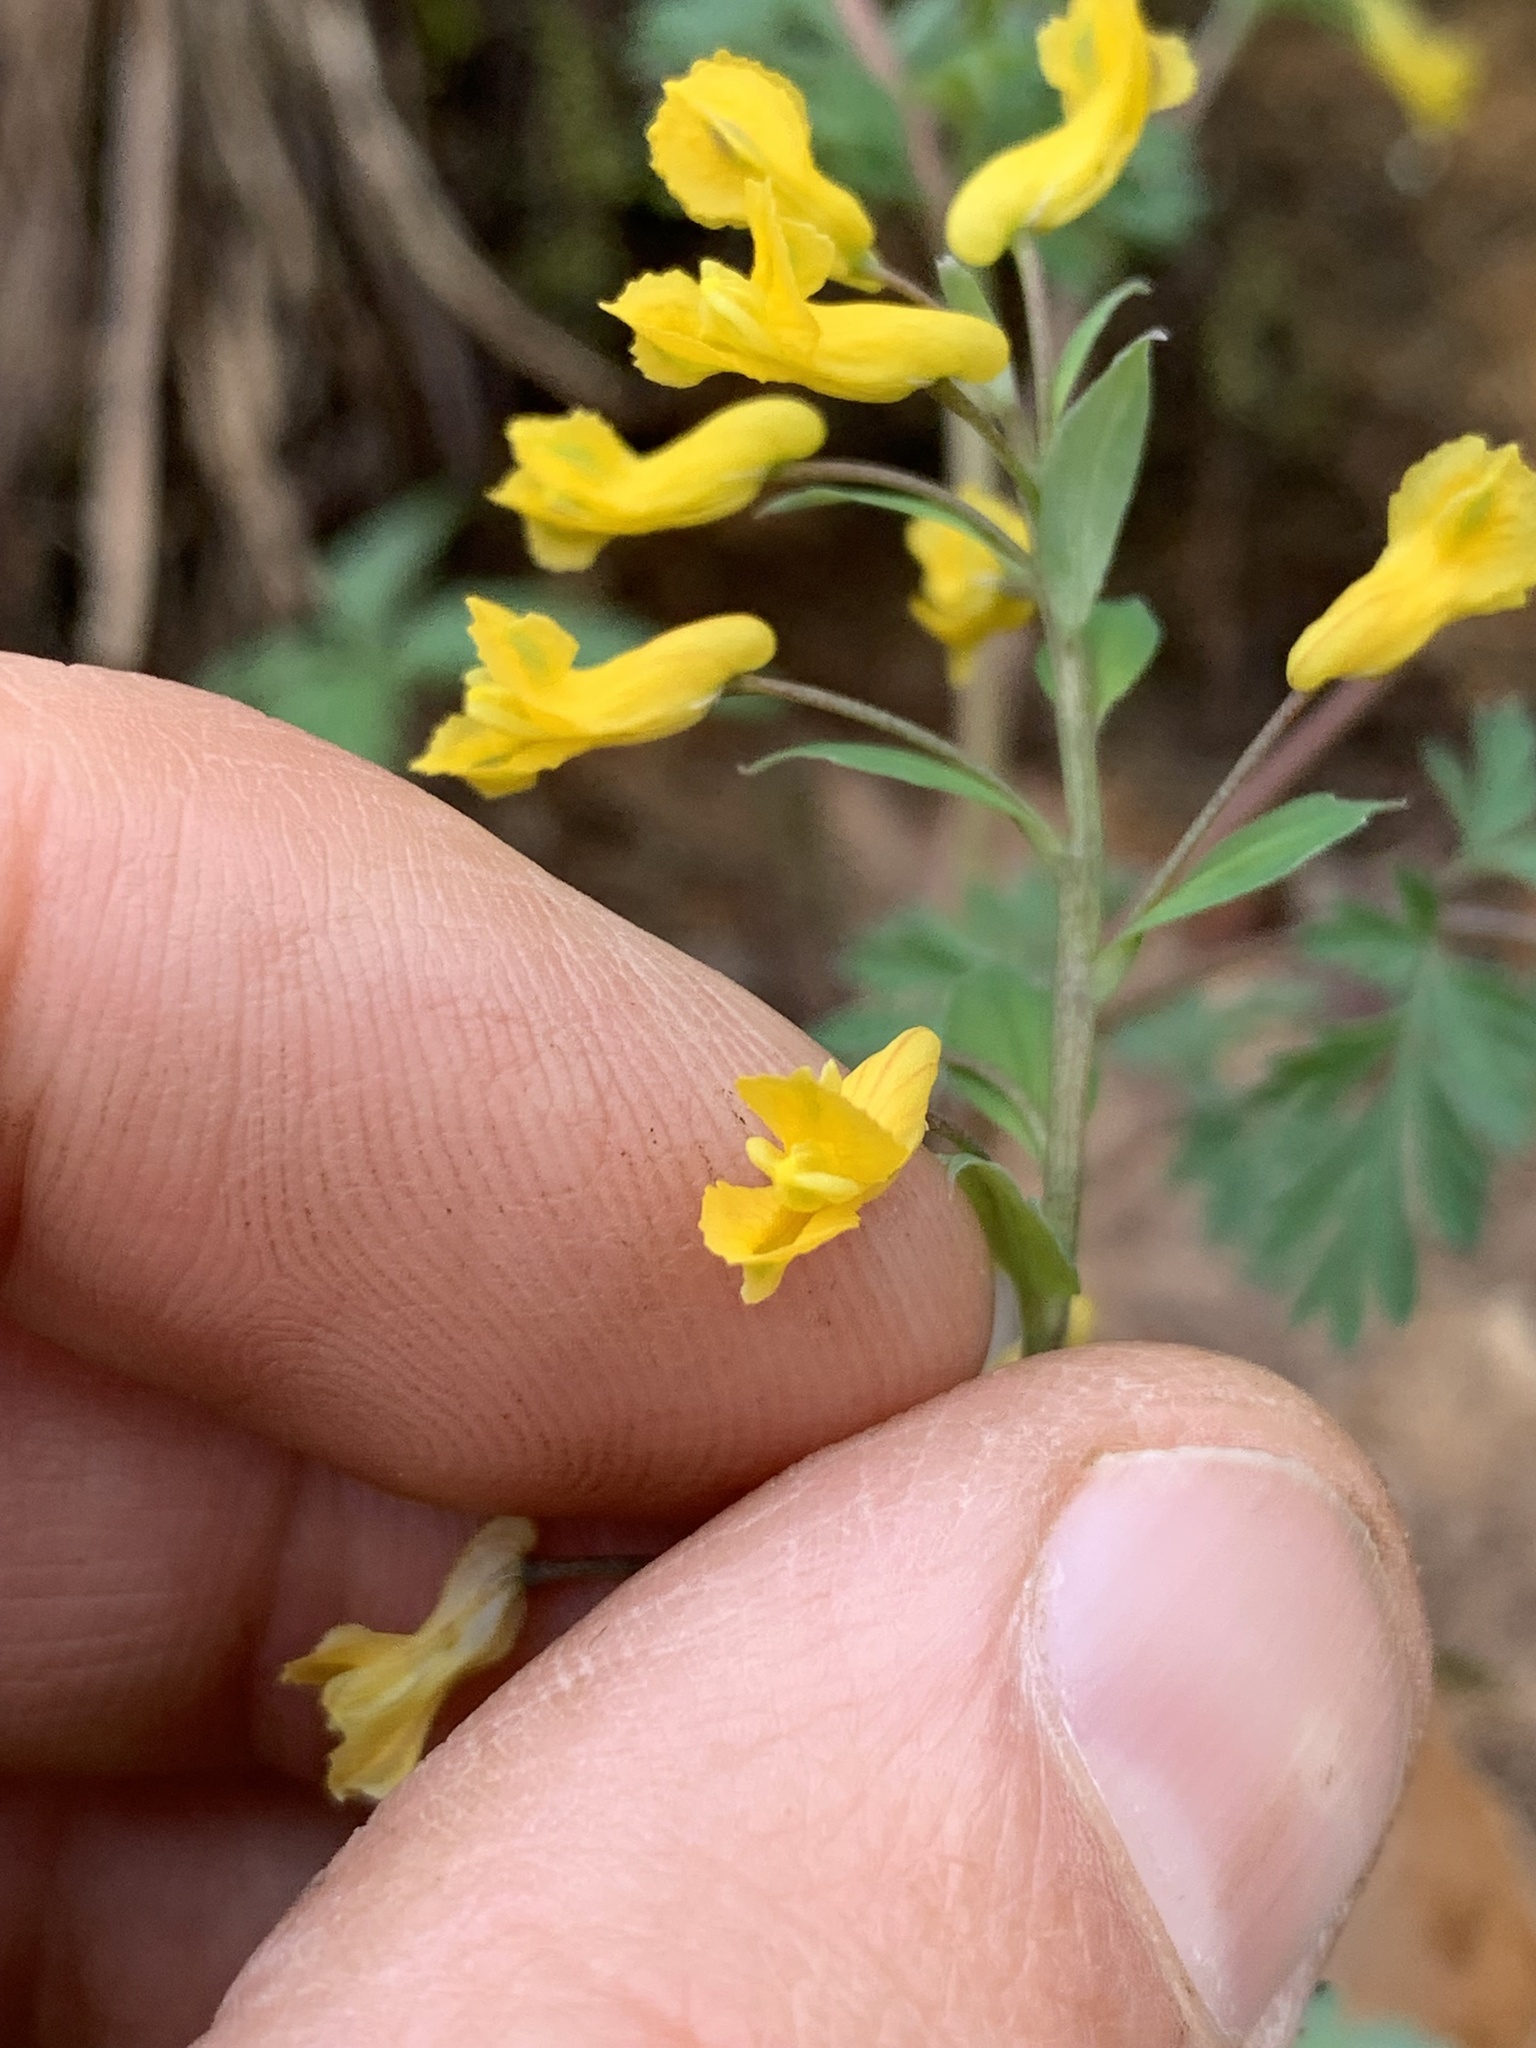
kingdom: Plantae
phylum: Tracheophyta
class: Magnoliopsida
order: Ranunculales
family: Papaveraceae
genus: Corydalis
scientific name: Corydalis flavula
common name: Yellow corydalis
